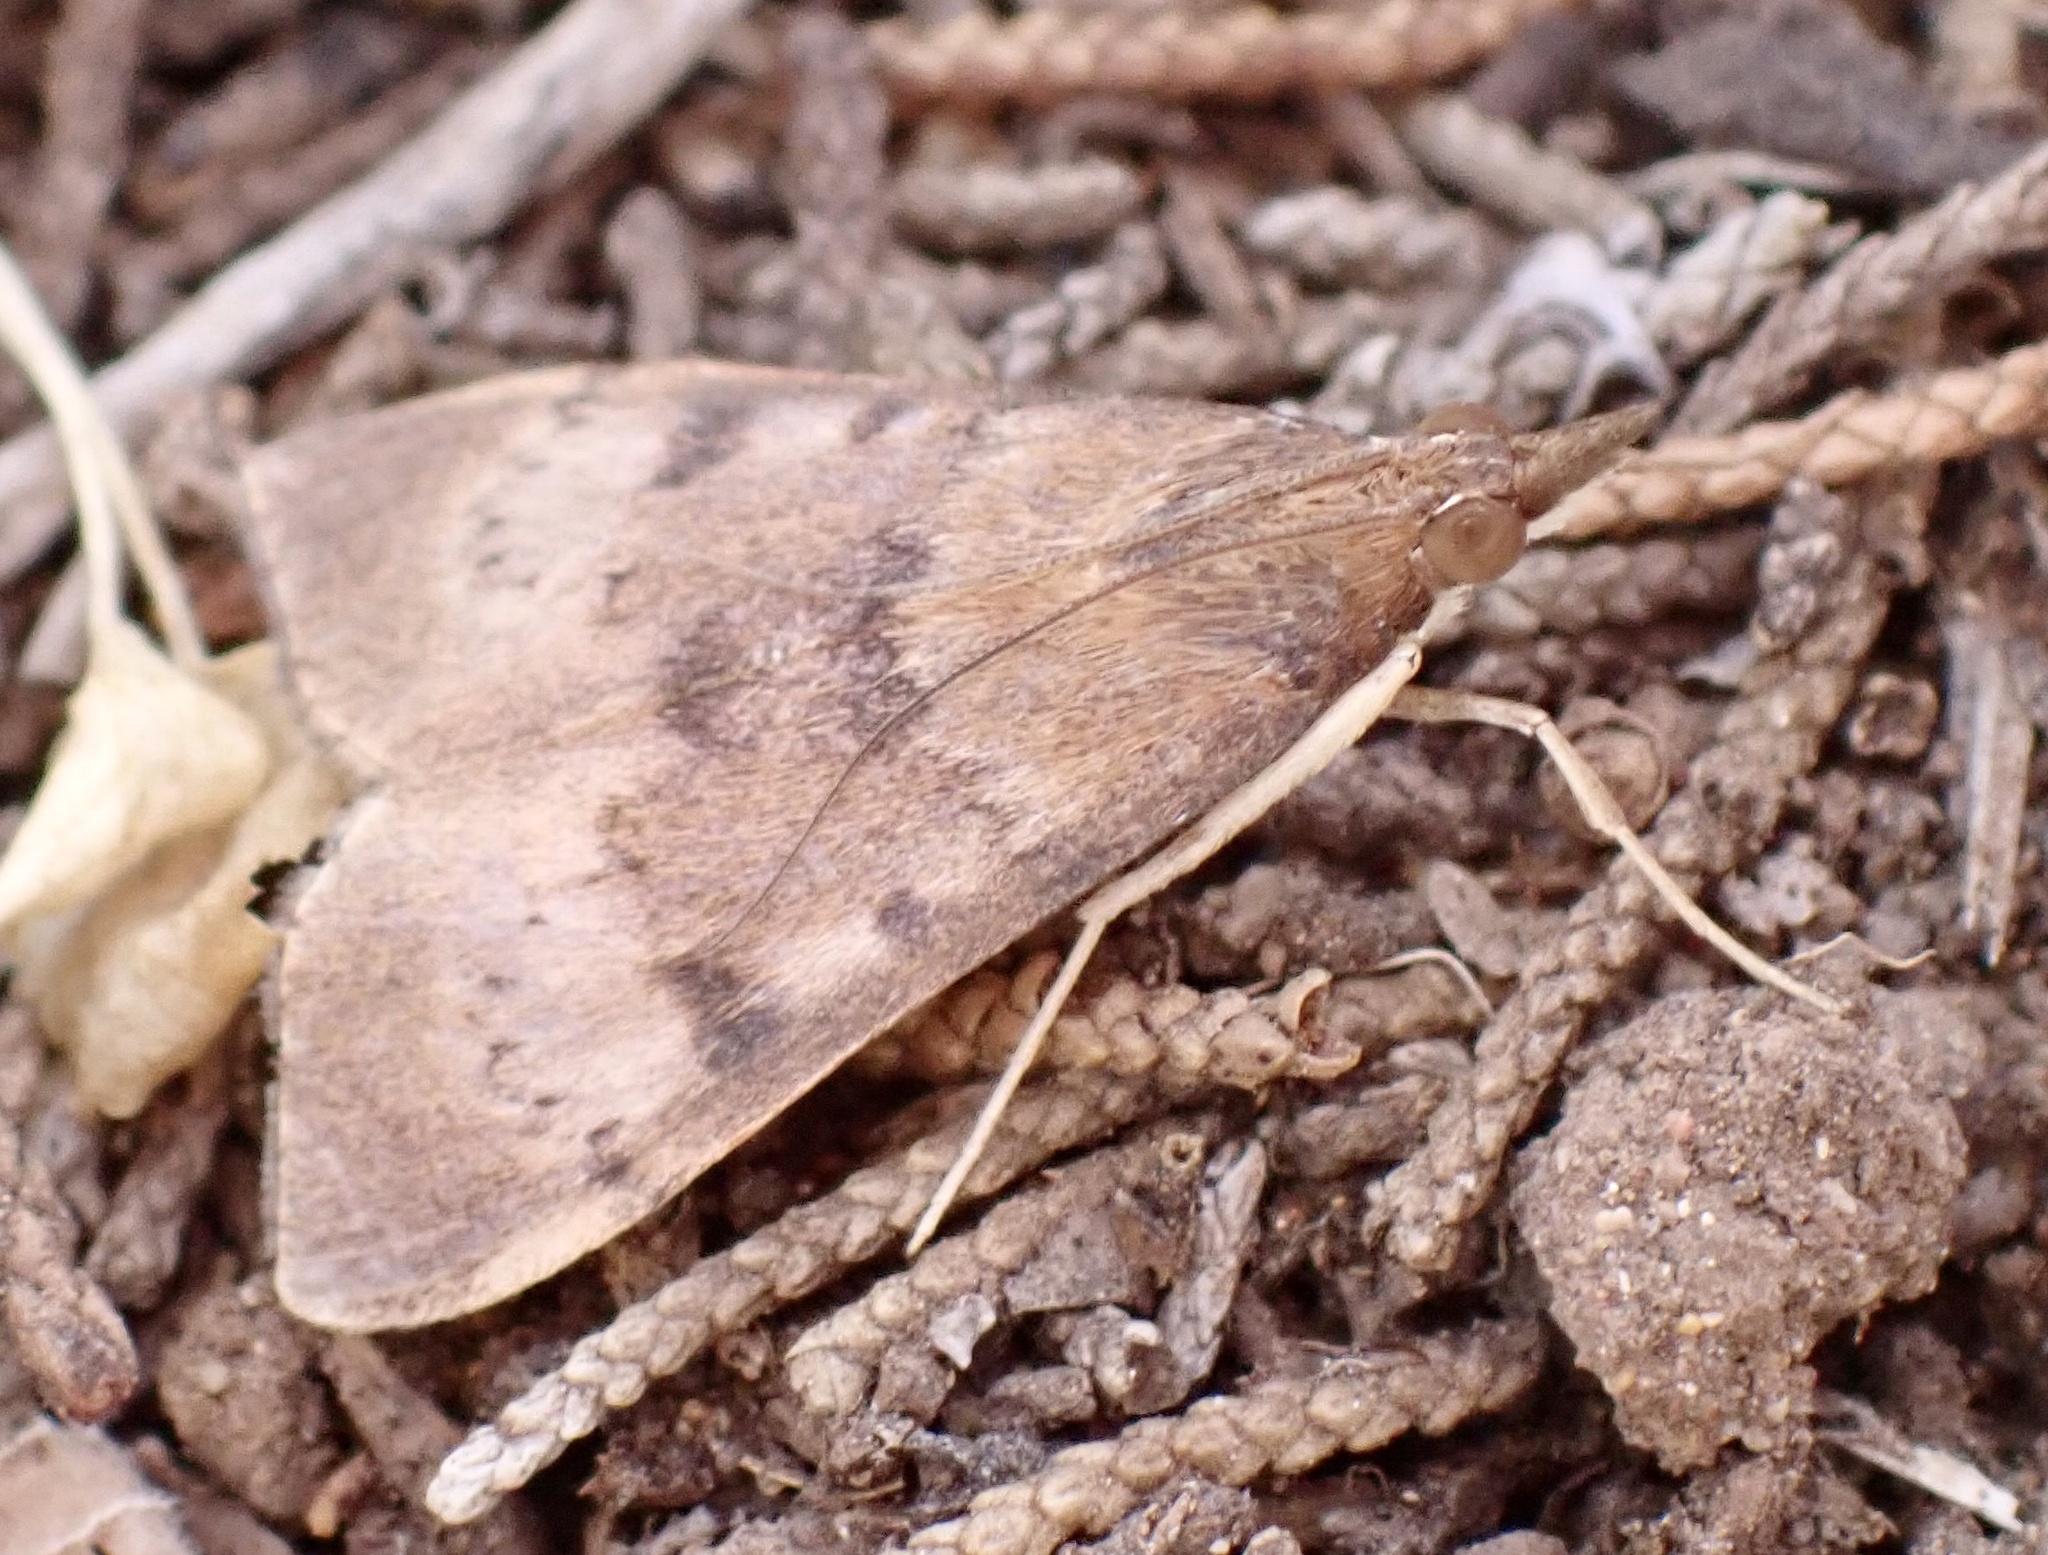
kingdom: Animalia
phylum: Arthropoda
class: Insecta
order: Lepidoptera
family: Crambidae
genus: Uresiphita
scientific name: Uresiphita gilvata
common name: Yellow-underwing pearl
